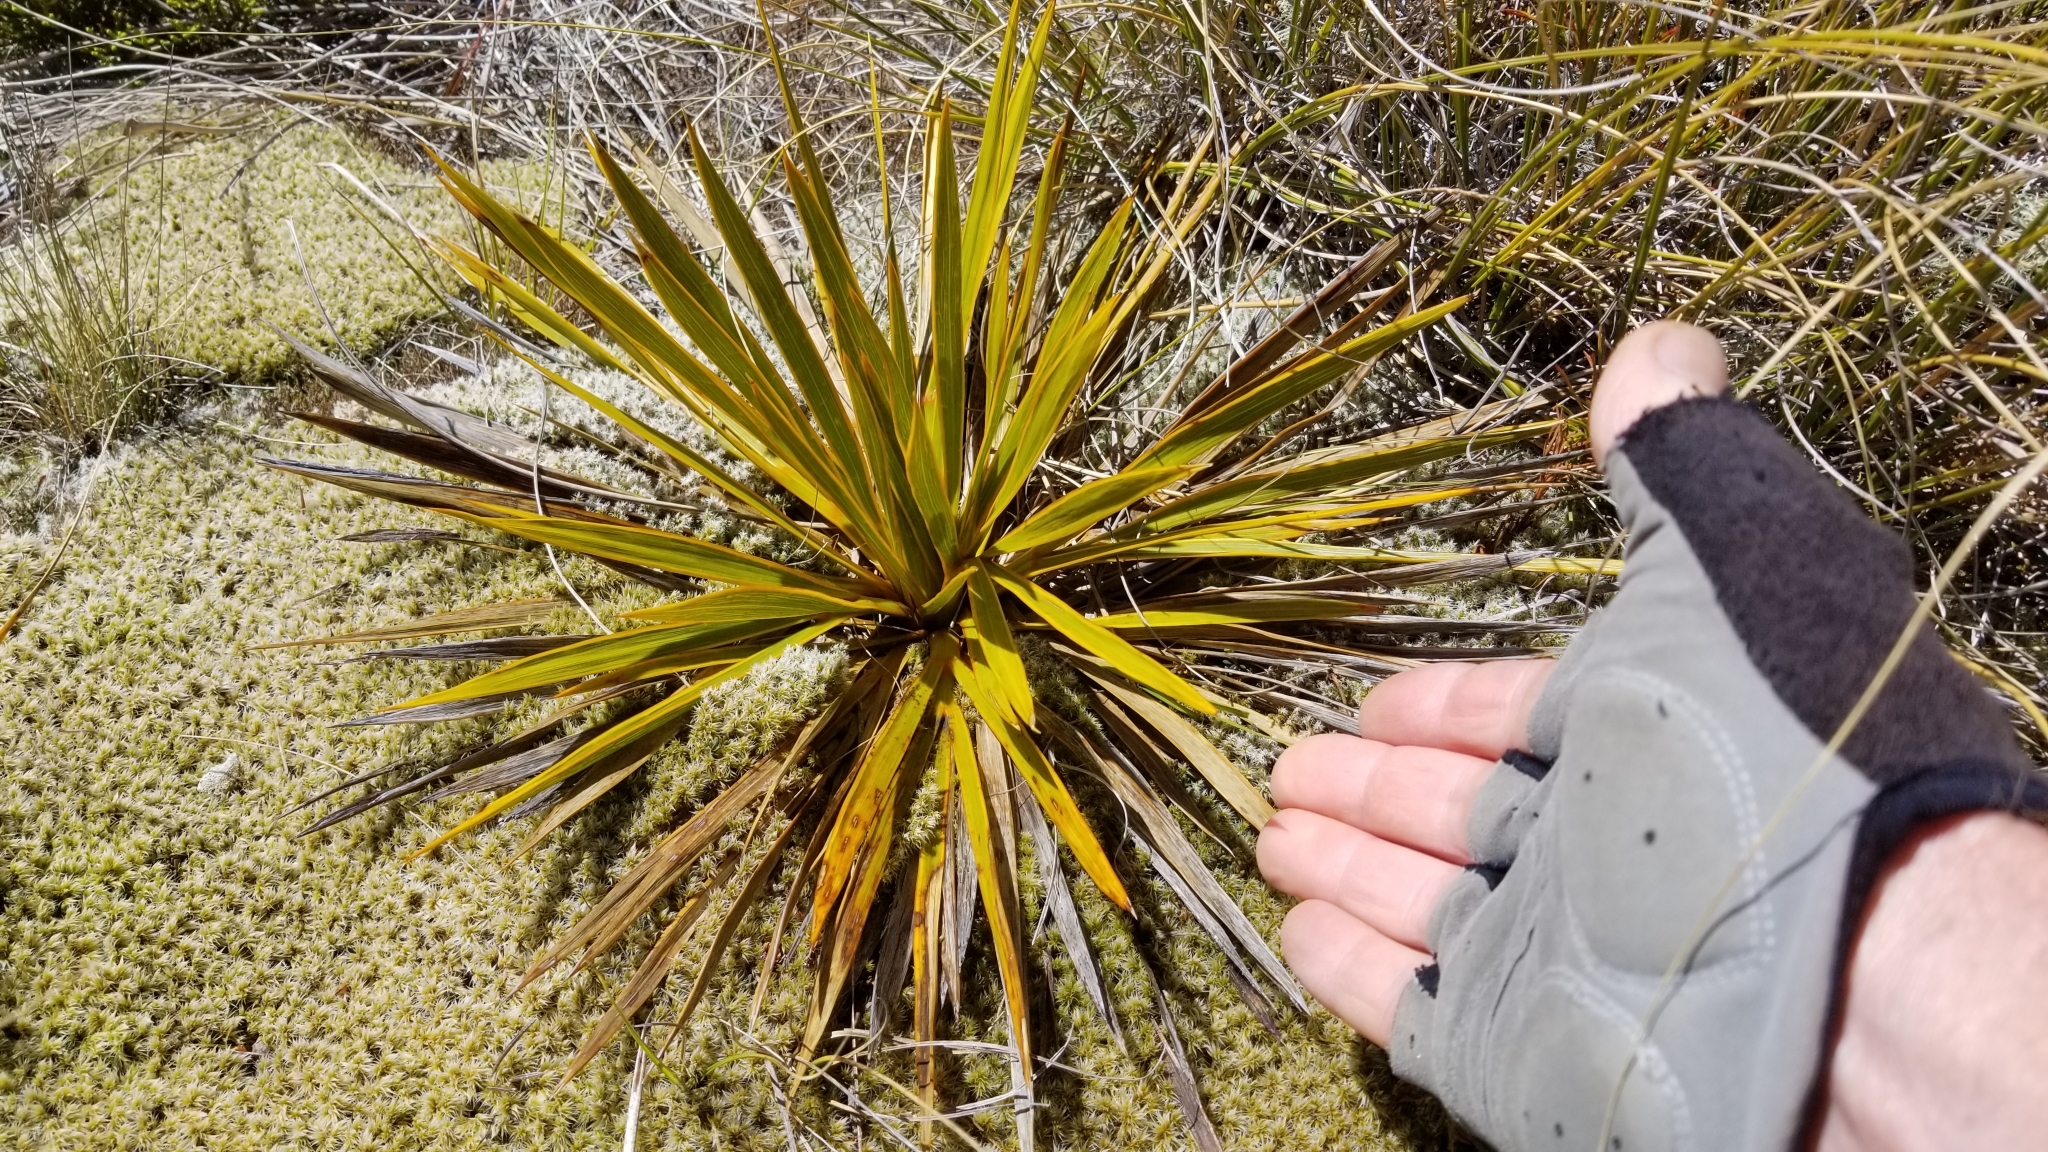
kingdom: Plantae
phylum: Tracheophyta
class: Magnoliopsida
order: Apiales
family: Apiaceae
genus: Aciphylla
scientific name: Aciphylla aurea
